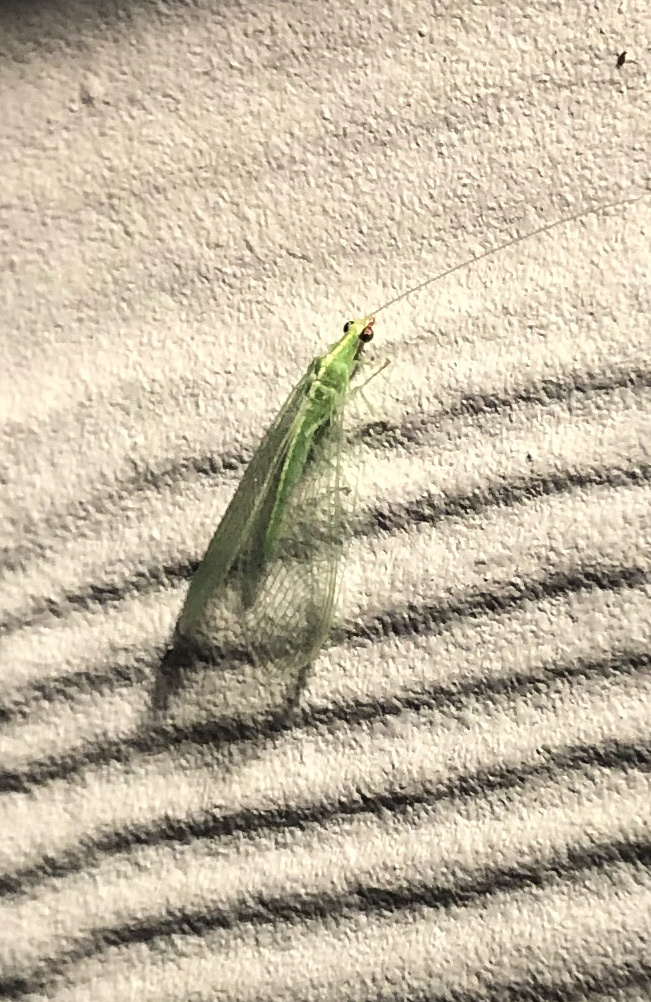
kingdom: Animalia
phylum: Arthropoda
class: Insecta
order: Neuroptera
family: Chrysopidae
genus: Chrysoperla
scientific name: Chrysoperla
